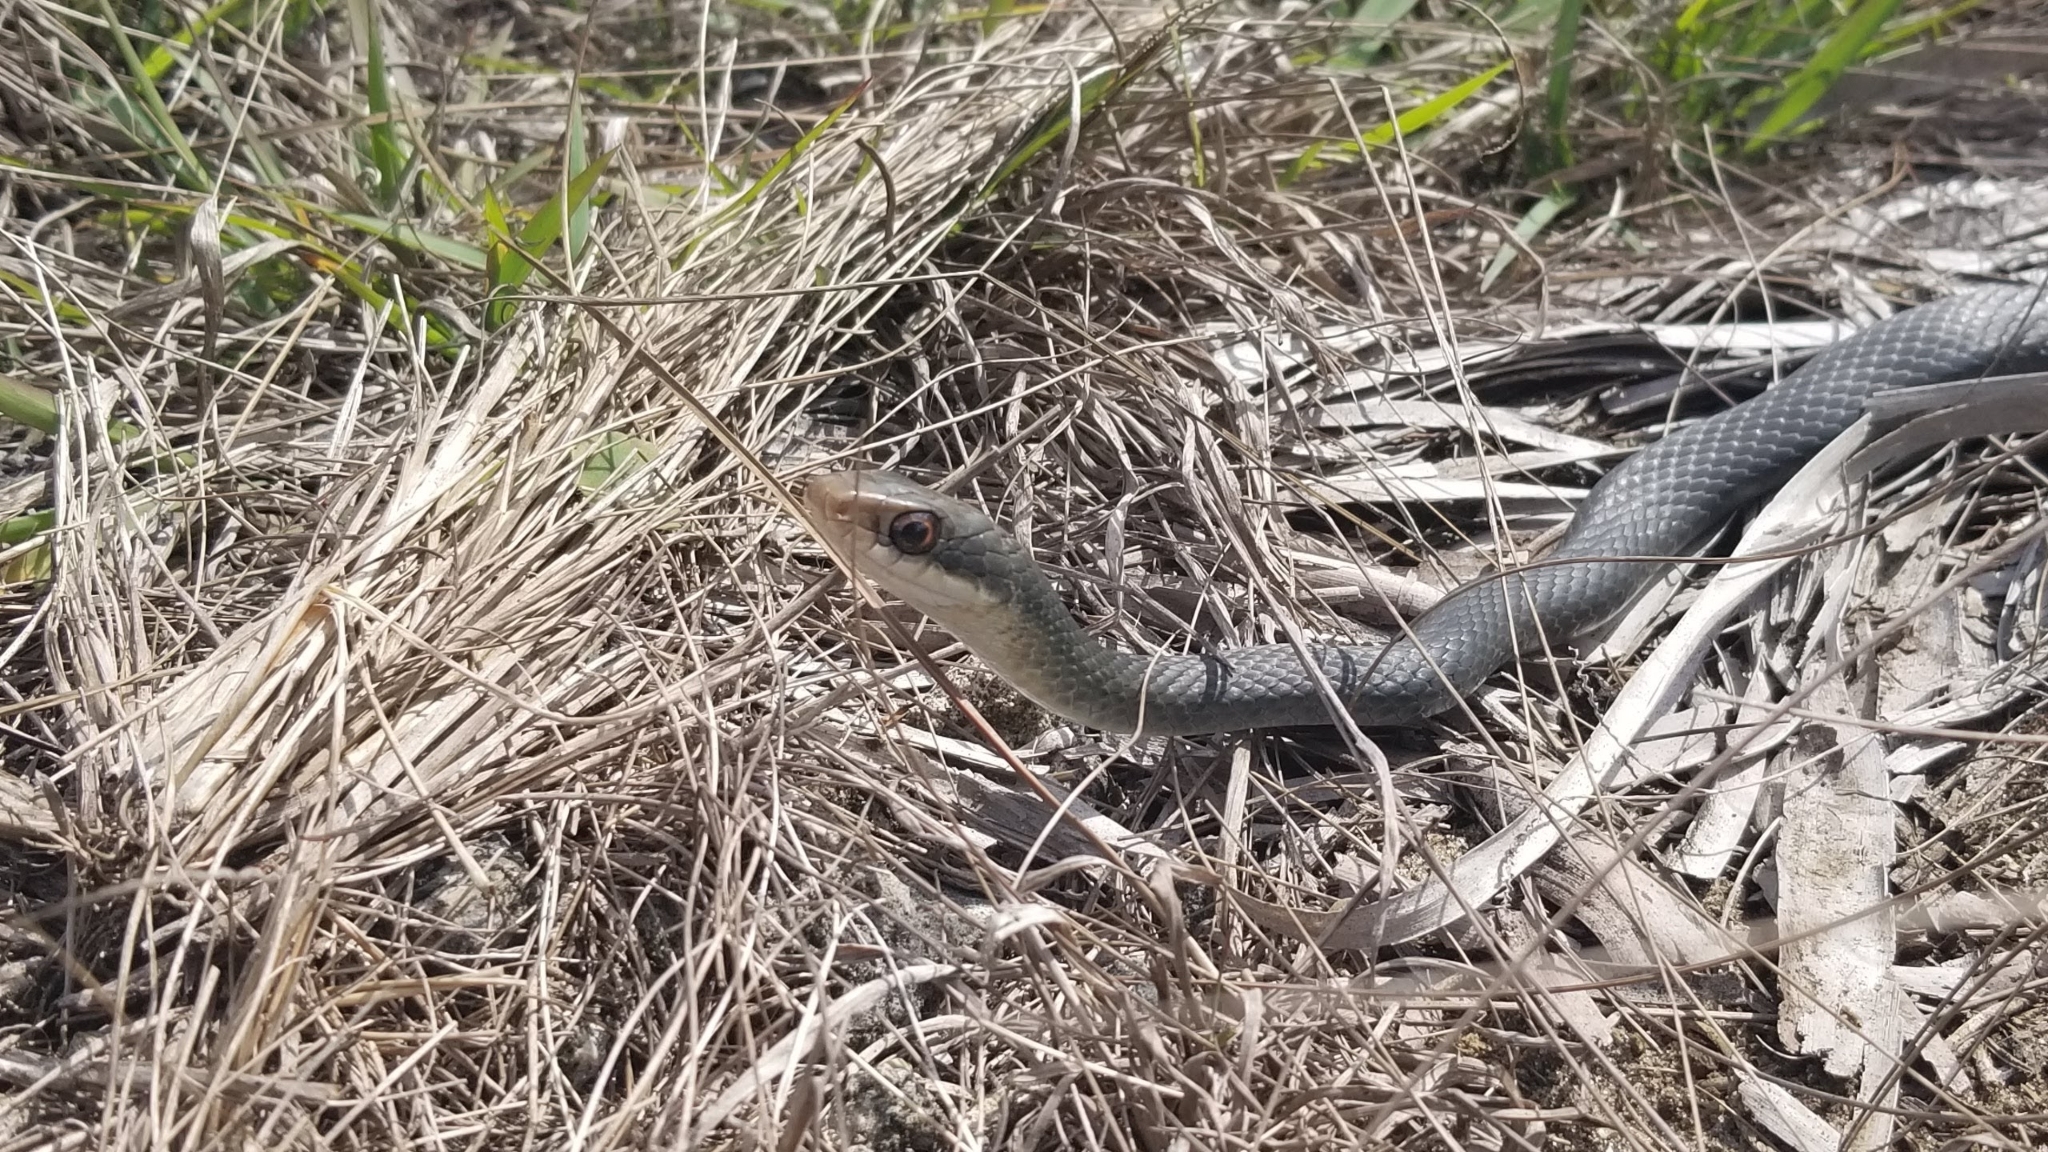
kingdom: Animalia
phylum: Chordata
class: Squamata
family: Colubridae
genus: Coluber
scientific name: Coluber constrictor
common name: Eastern racer
